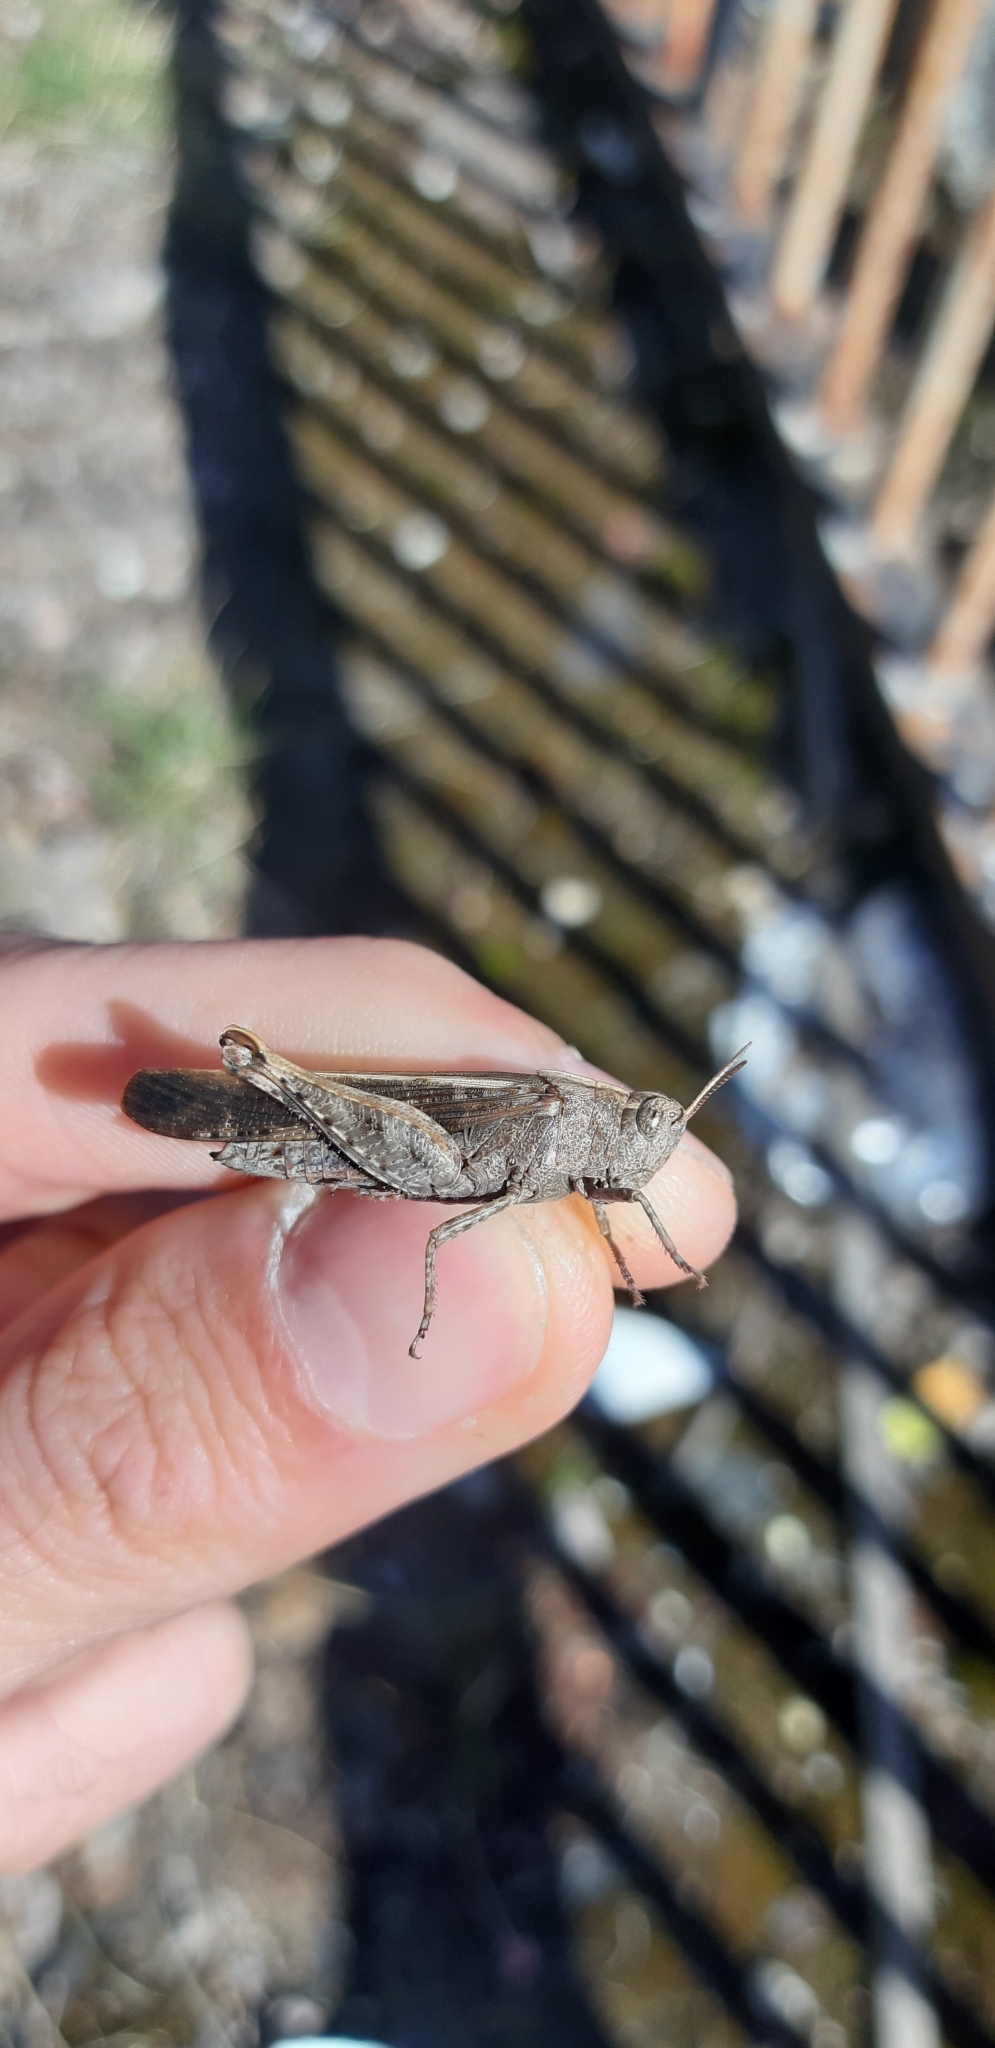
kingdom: Animalia
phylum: Arthropoda
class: Insecta
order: Orthoptera
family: Acrididae
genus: Aiolopus
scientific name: Aiolopus strepens
